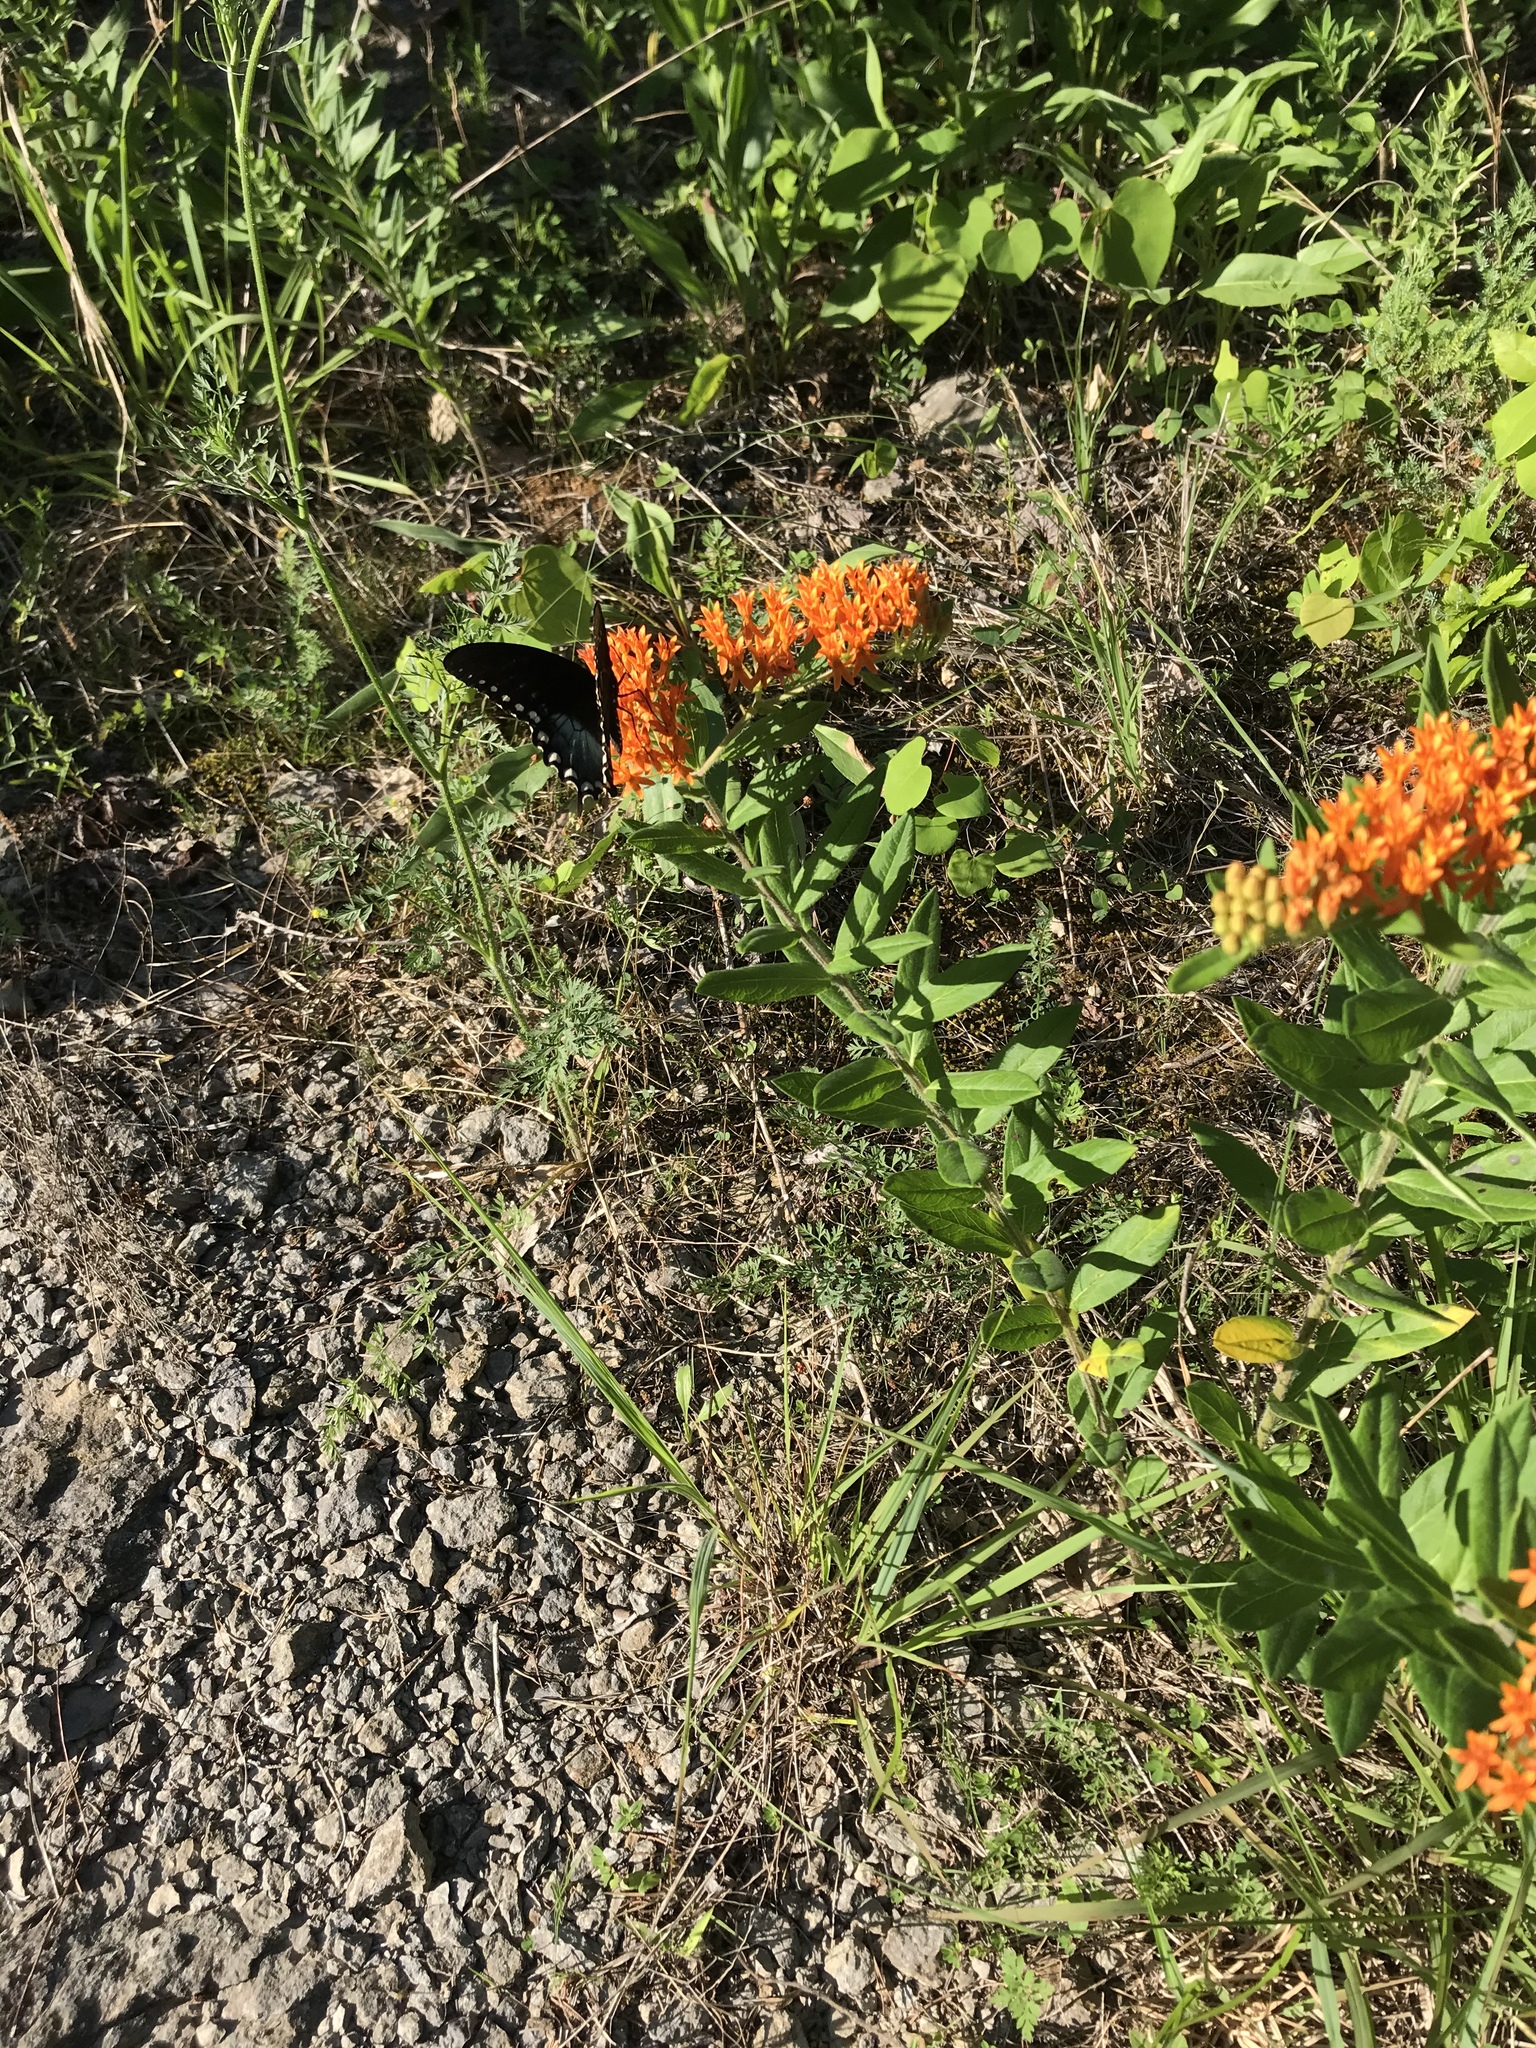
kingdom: Plantae
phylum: Tracheophyta
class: Magnoliopsida
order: Gentianales
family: Apocynaceae
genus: Asclepias
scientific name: Asclepias tuberosa
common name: Butterfly milkweed
